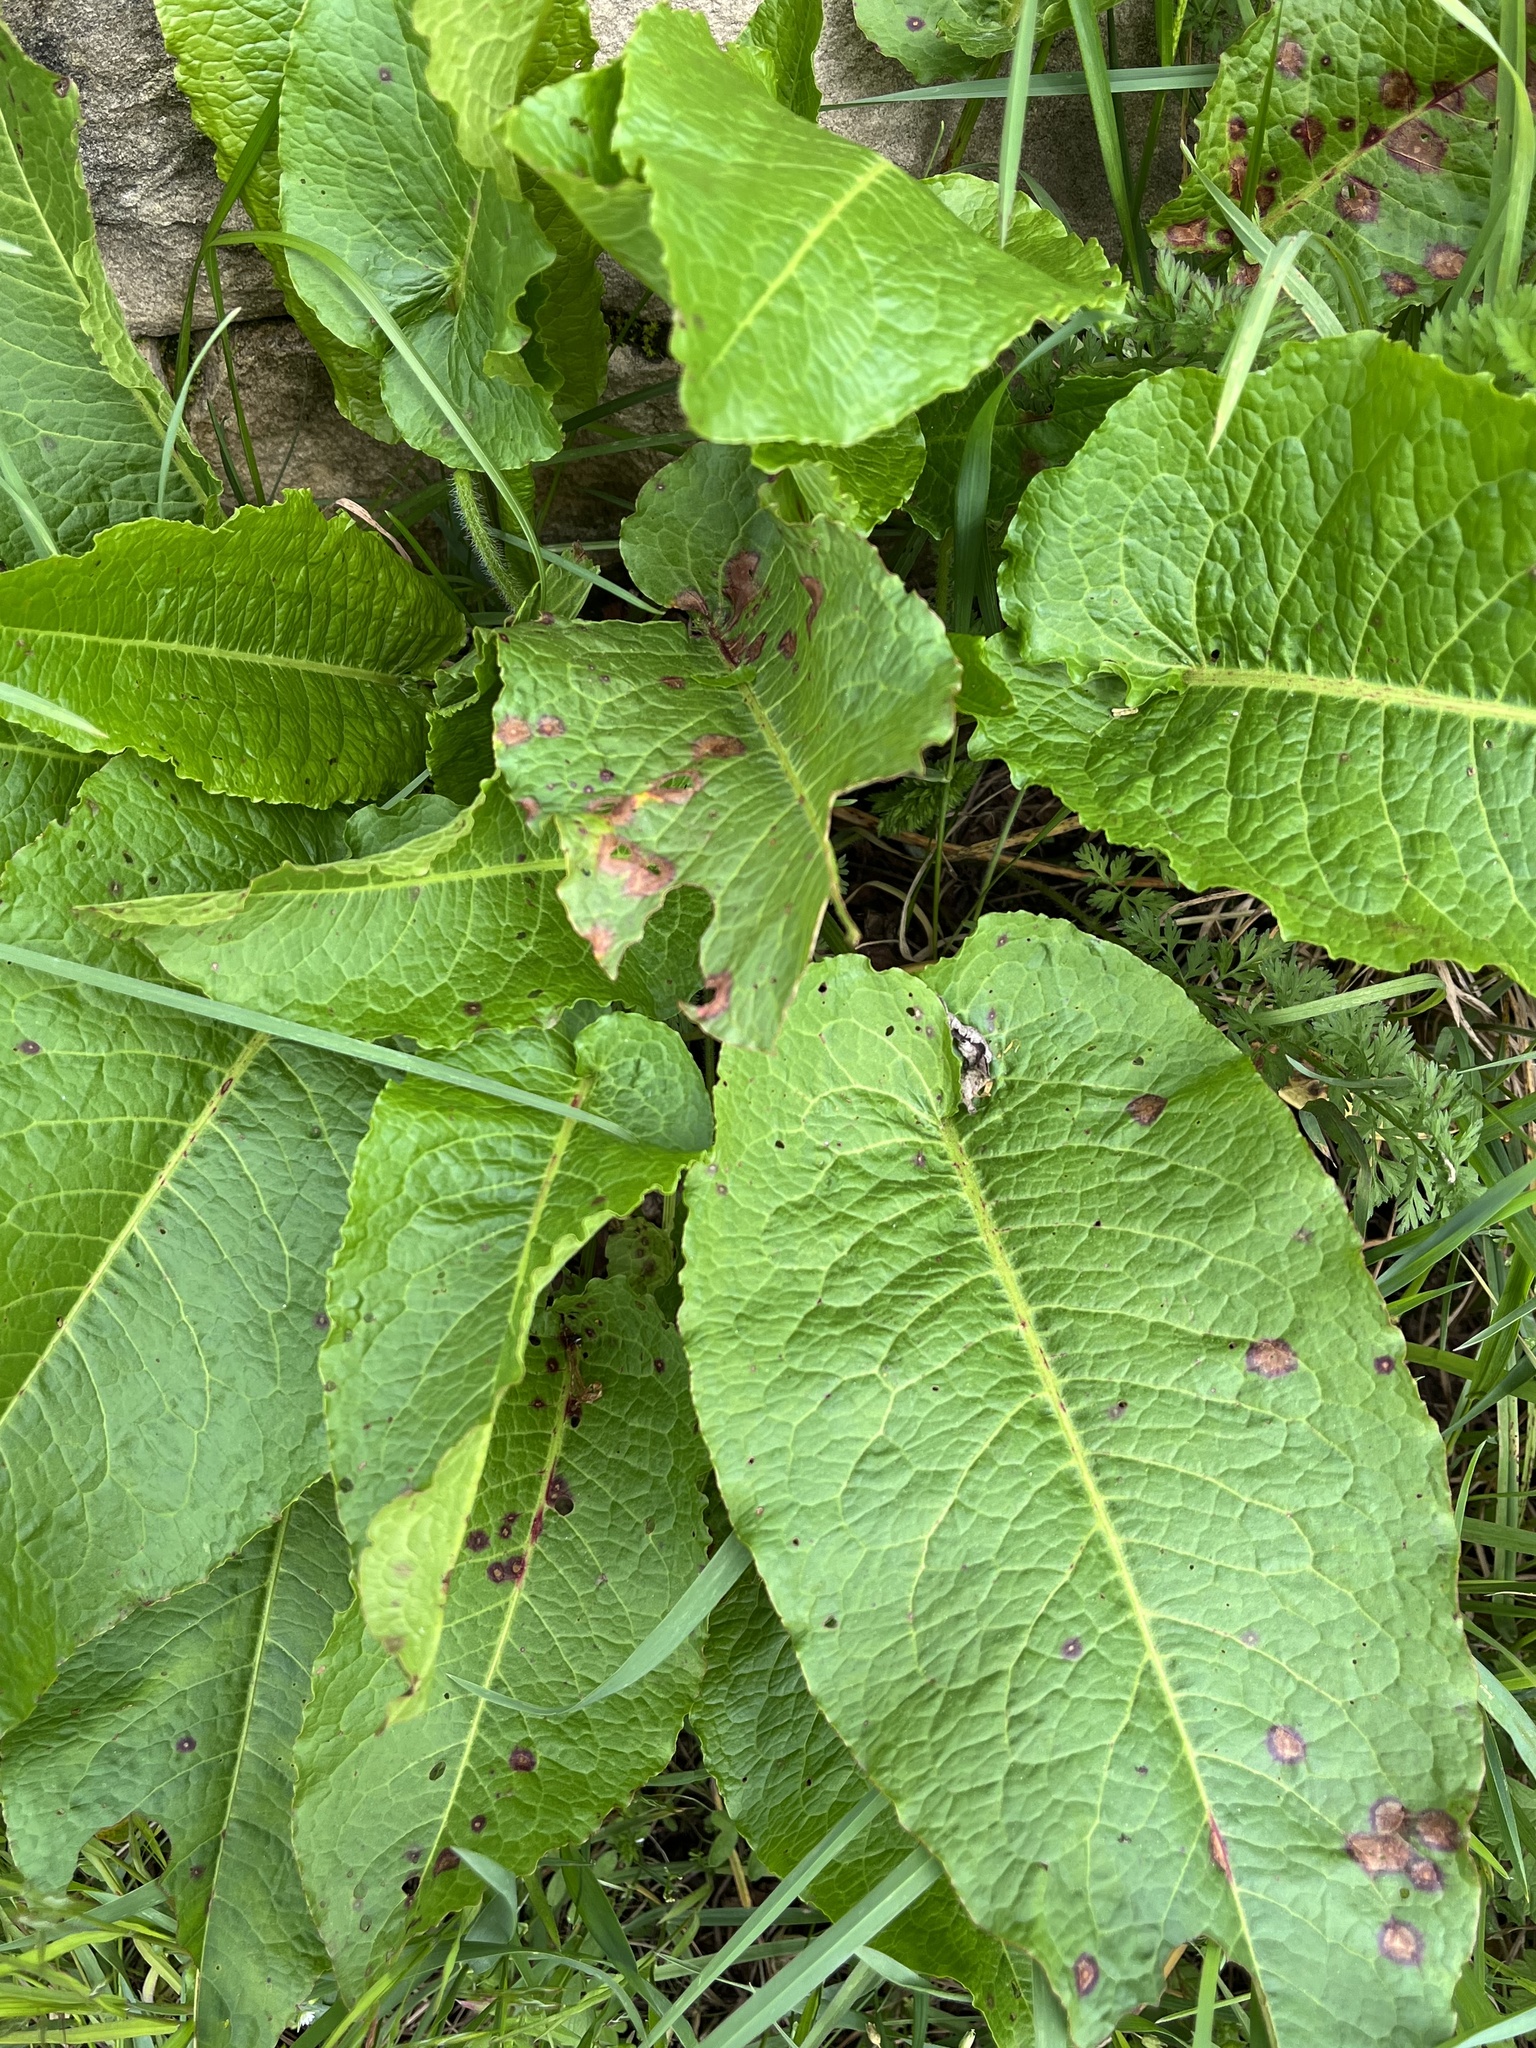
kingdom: Plantae
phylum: Tracheophyta
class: Magnoliopsida
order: Caryophyllales
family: Polygonaceae
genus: Rumex
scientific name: Rumex obtusifolius
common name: Bitter dock
